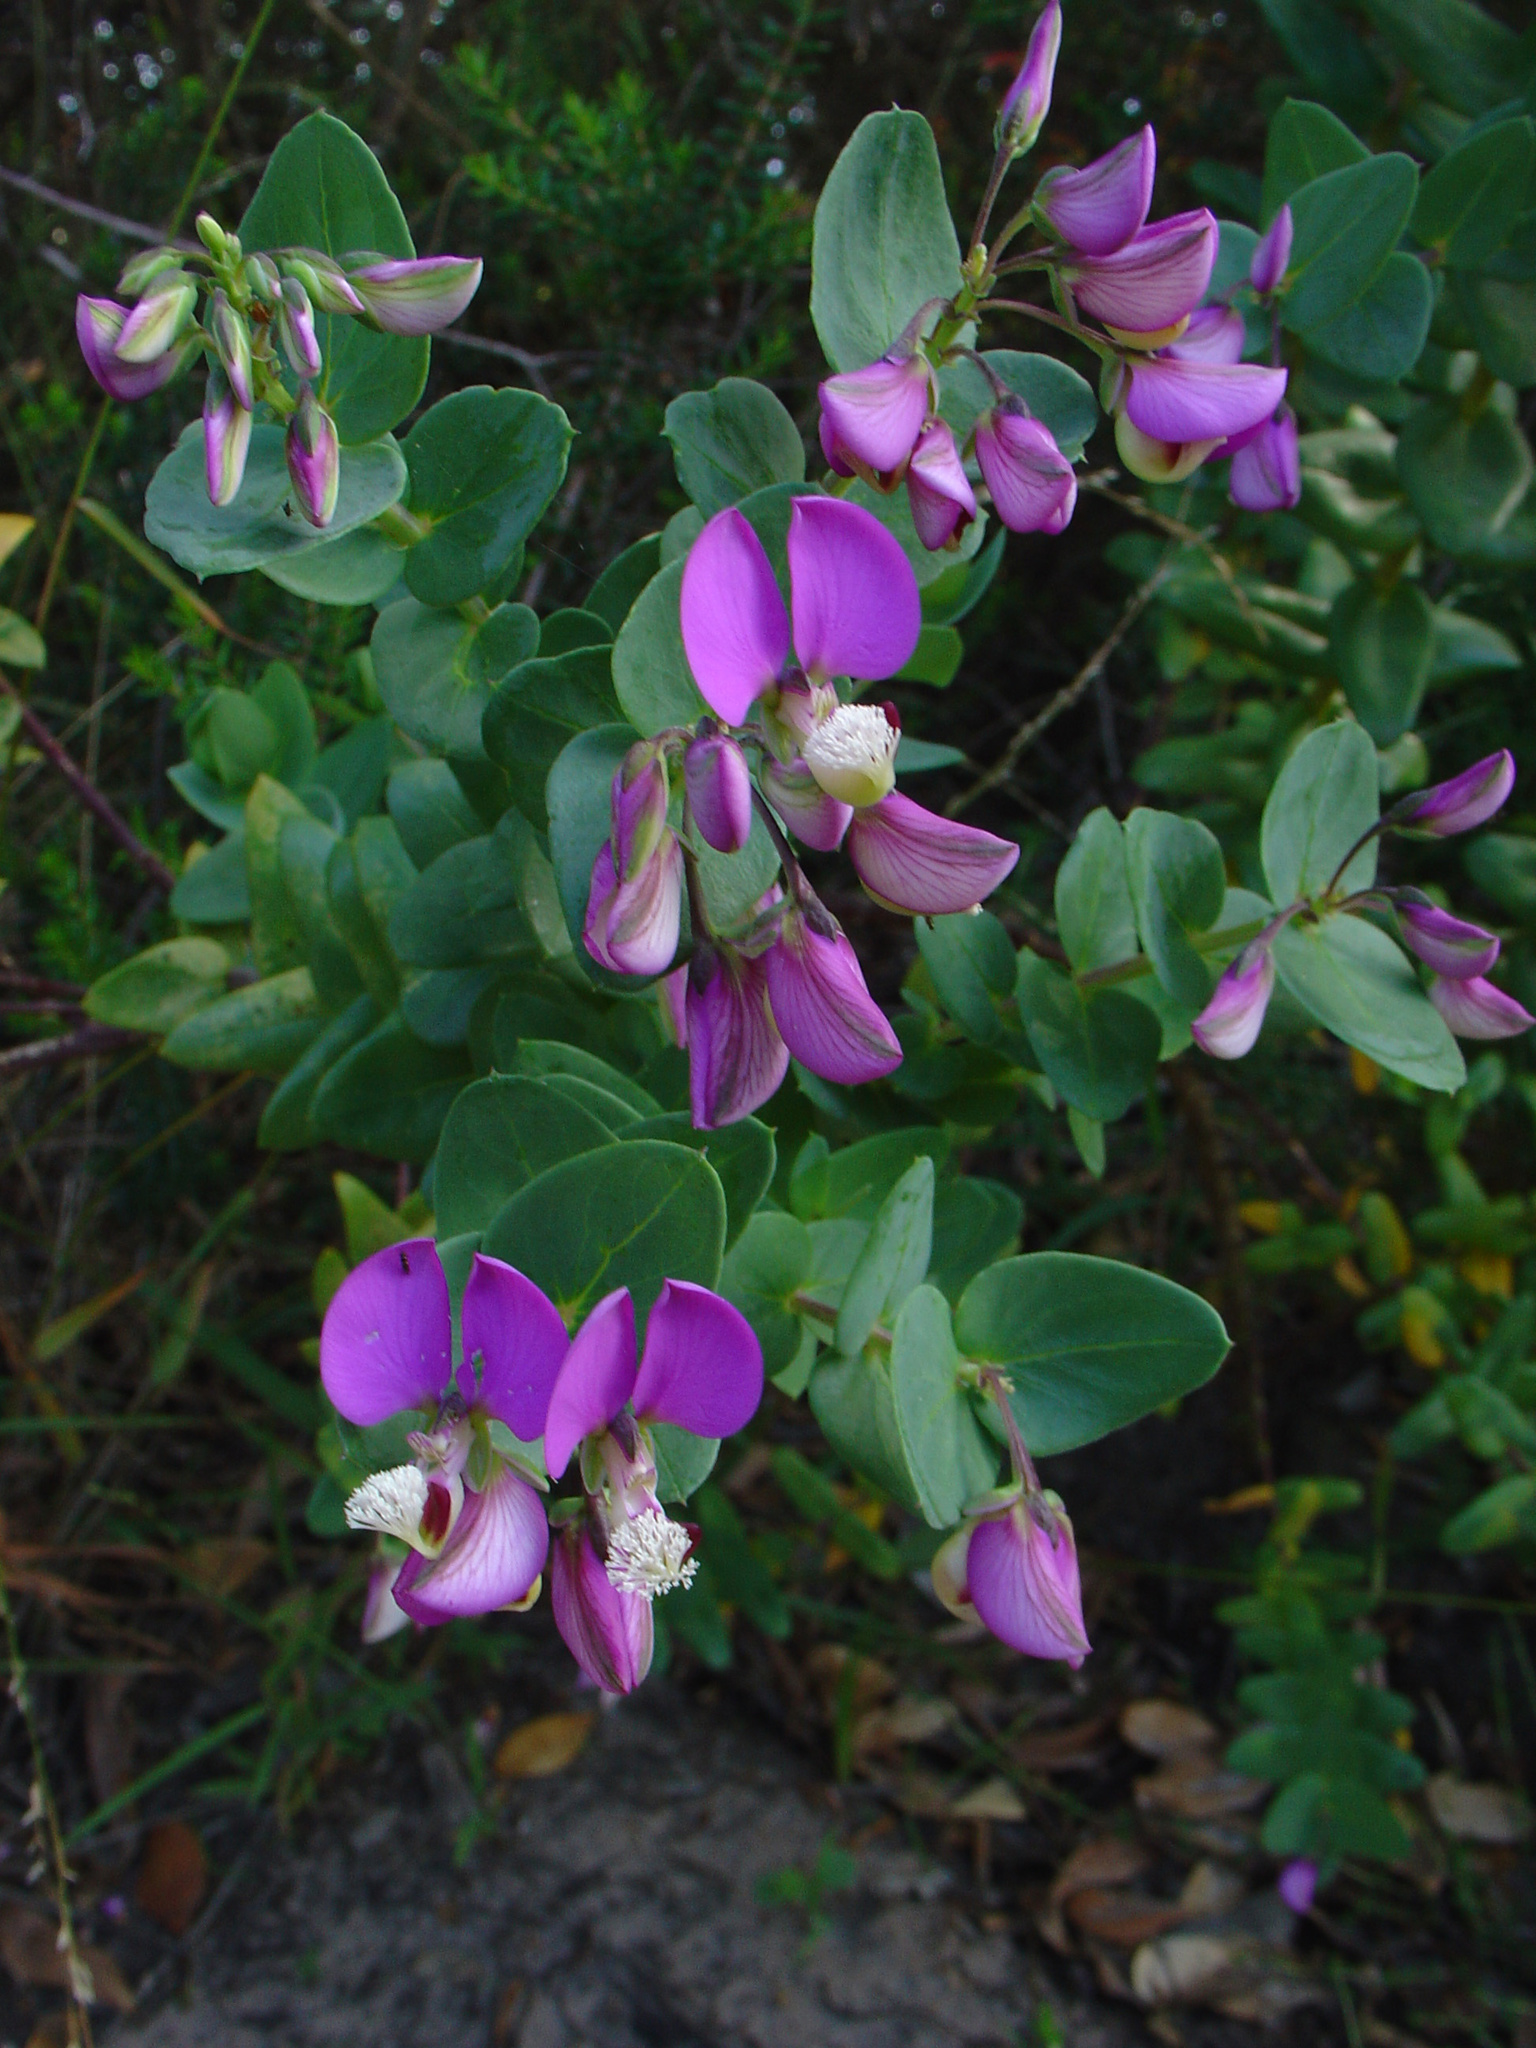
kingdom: Plantae
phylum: Tracheophyta
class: Magnoliopsida
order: Fabales
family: Polygalaceae
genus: Polygala
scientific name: Polygala fruticosa
